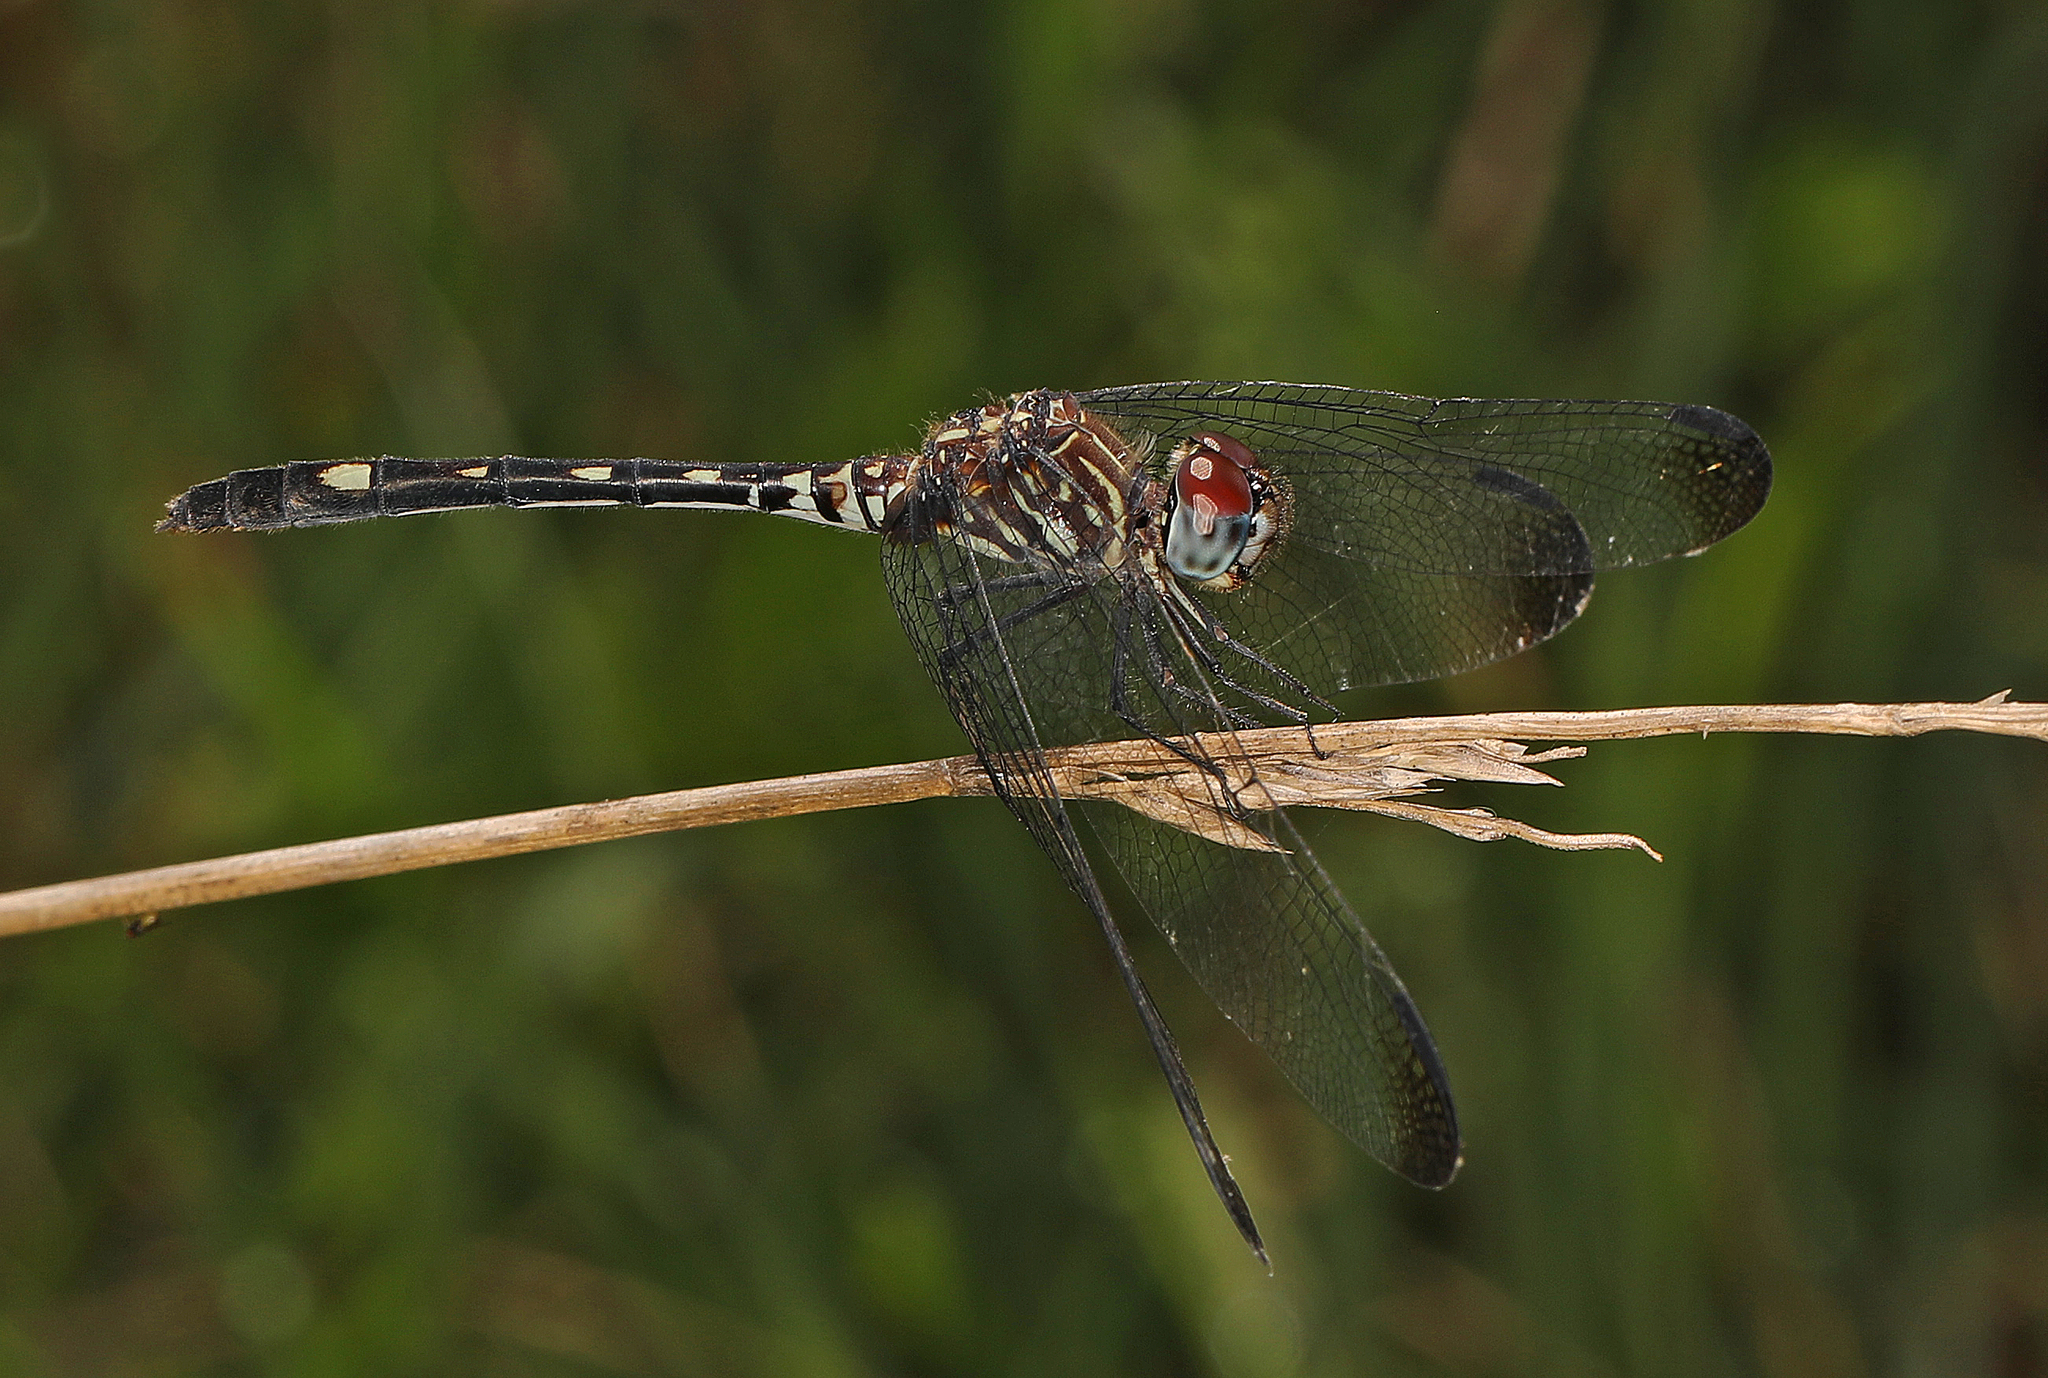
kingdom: Animalia
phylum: Arthropoda
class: Insecta
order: Odonata
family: Libellulidae
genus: Dythemis
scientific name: Dythemis velox
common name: Swift setwing
